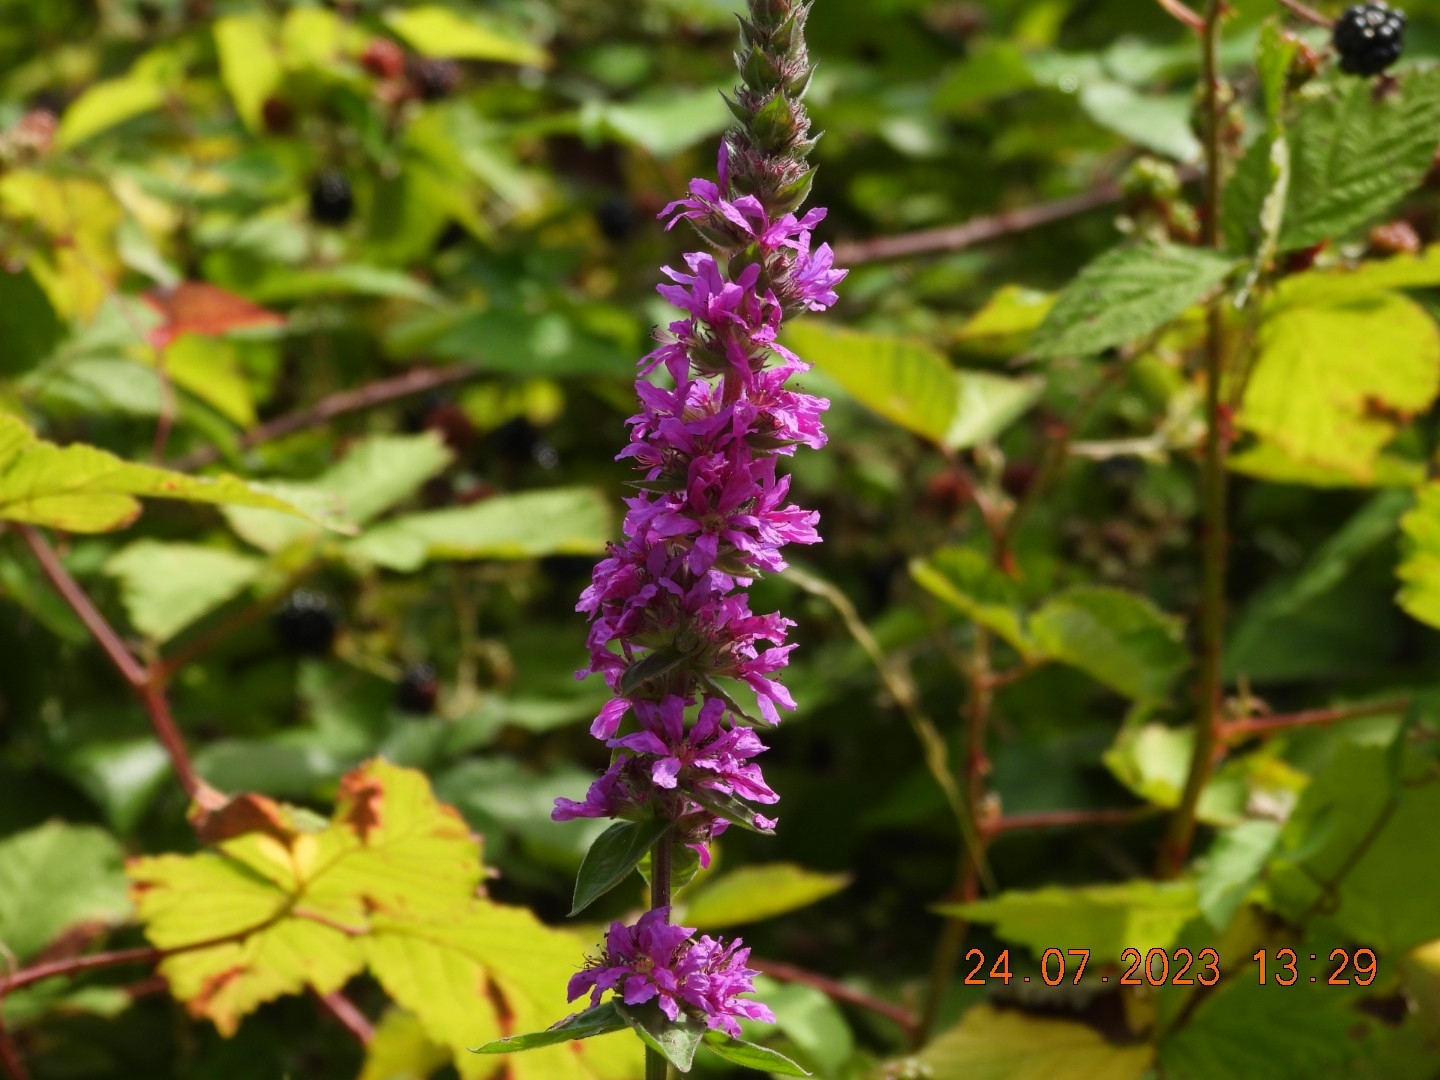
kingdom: Plantae
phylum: Tracheophyta
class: Magnoliopsida
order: Myrtales
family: Lythraceae
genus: Lythrum
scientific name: Lythrum salicaria
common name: Purple loosestrife
